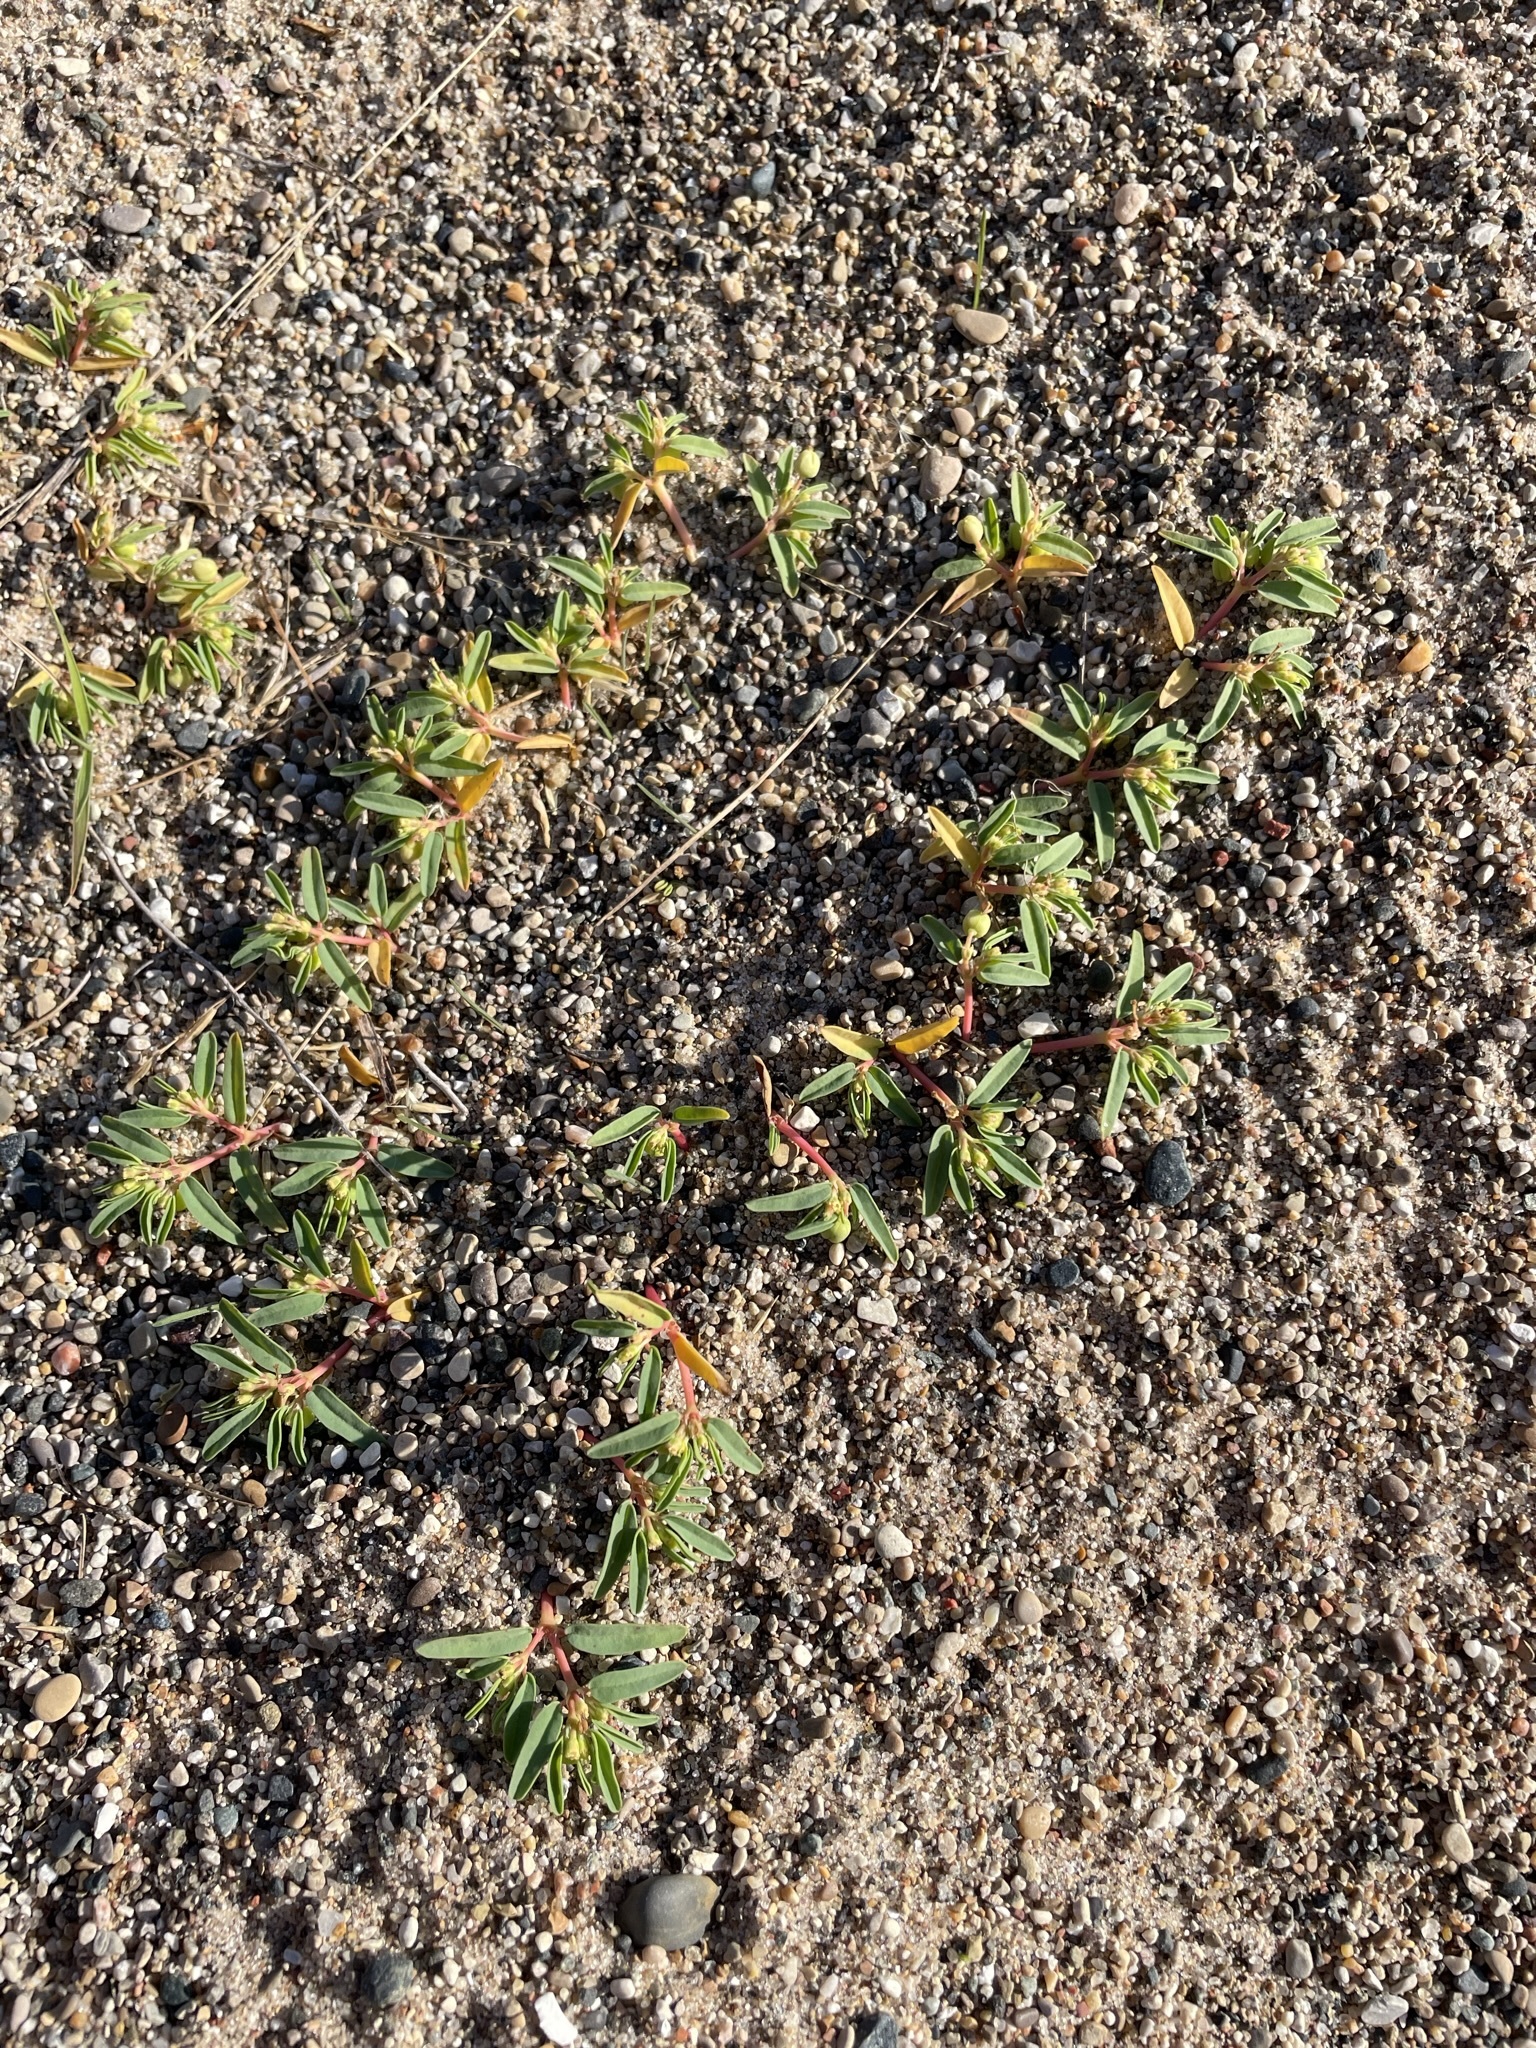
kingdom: Plantae
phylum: Tracheophyta
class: Magnoliopsida
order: Malpighiales
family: Euphorbiaceae
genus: Euphorbia
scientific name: Euphorbia polygonifolia
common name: Knotweed spurge
